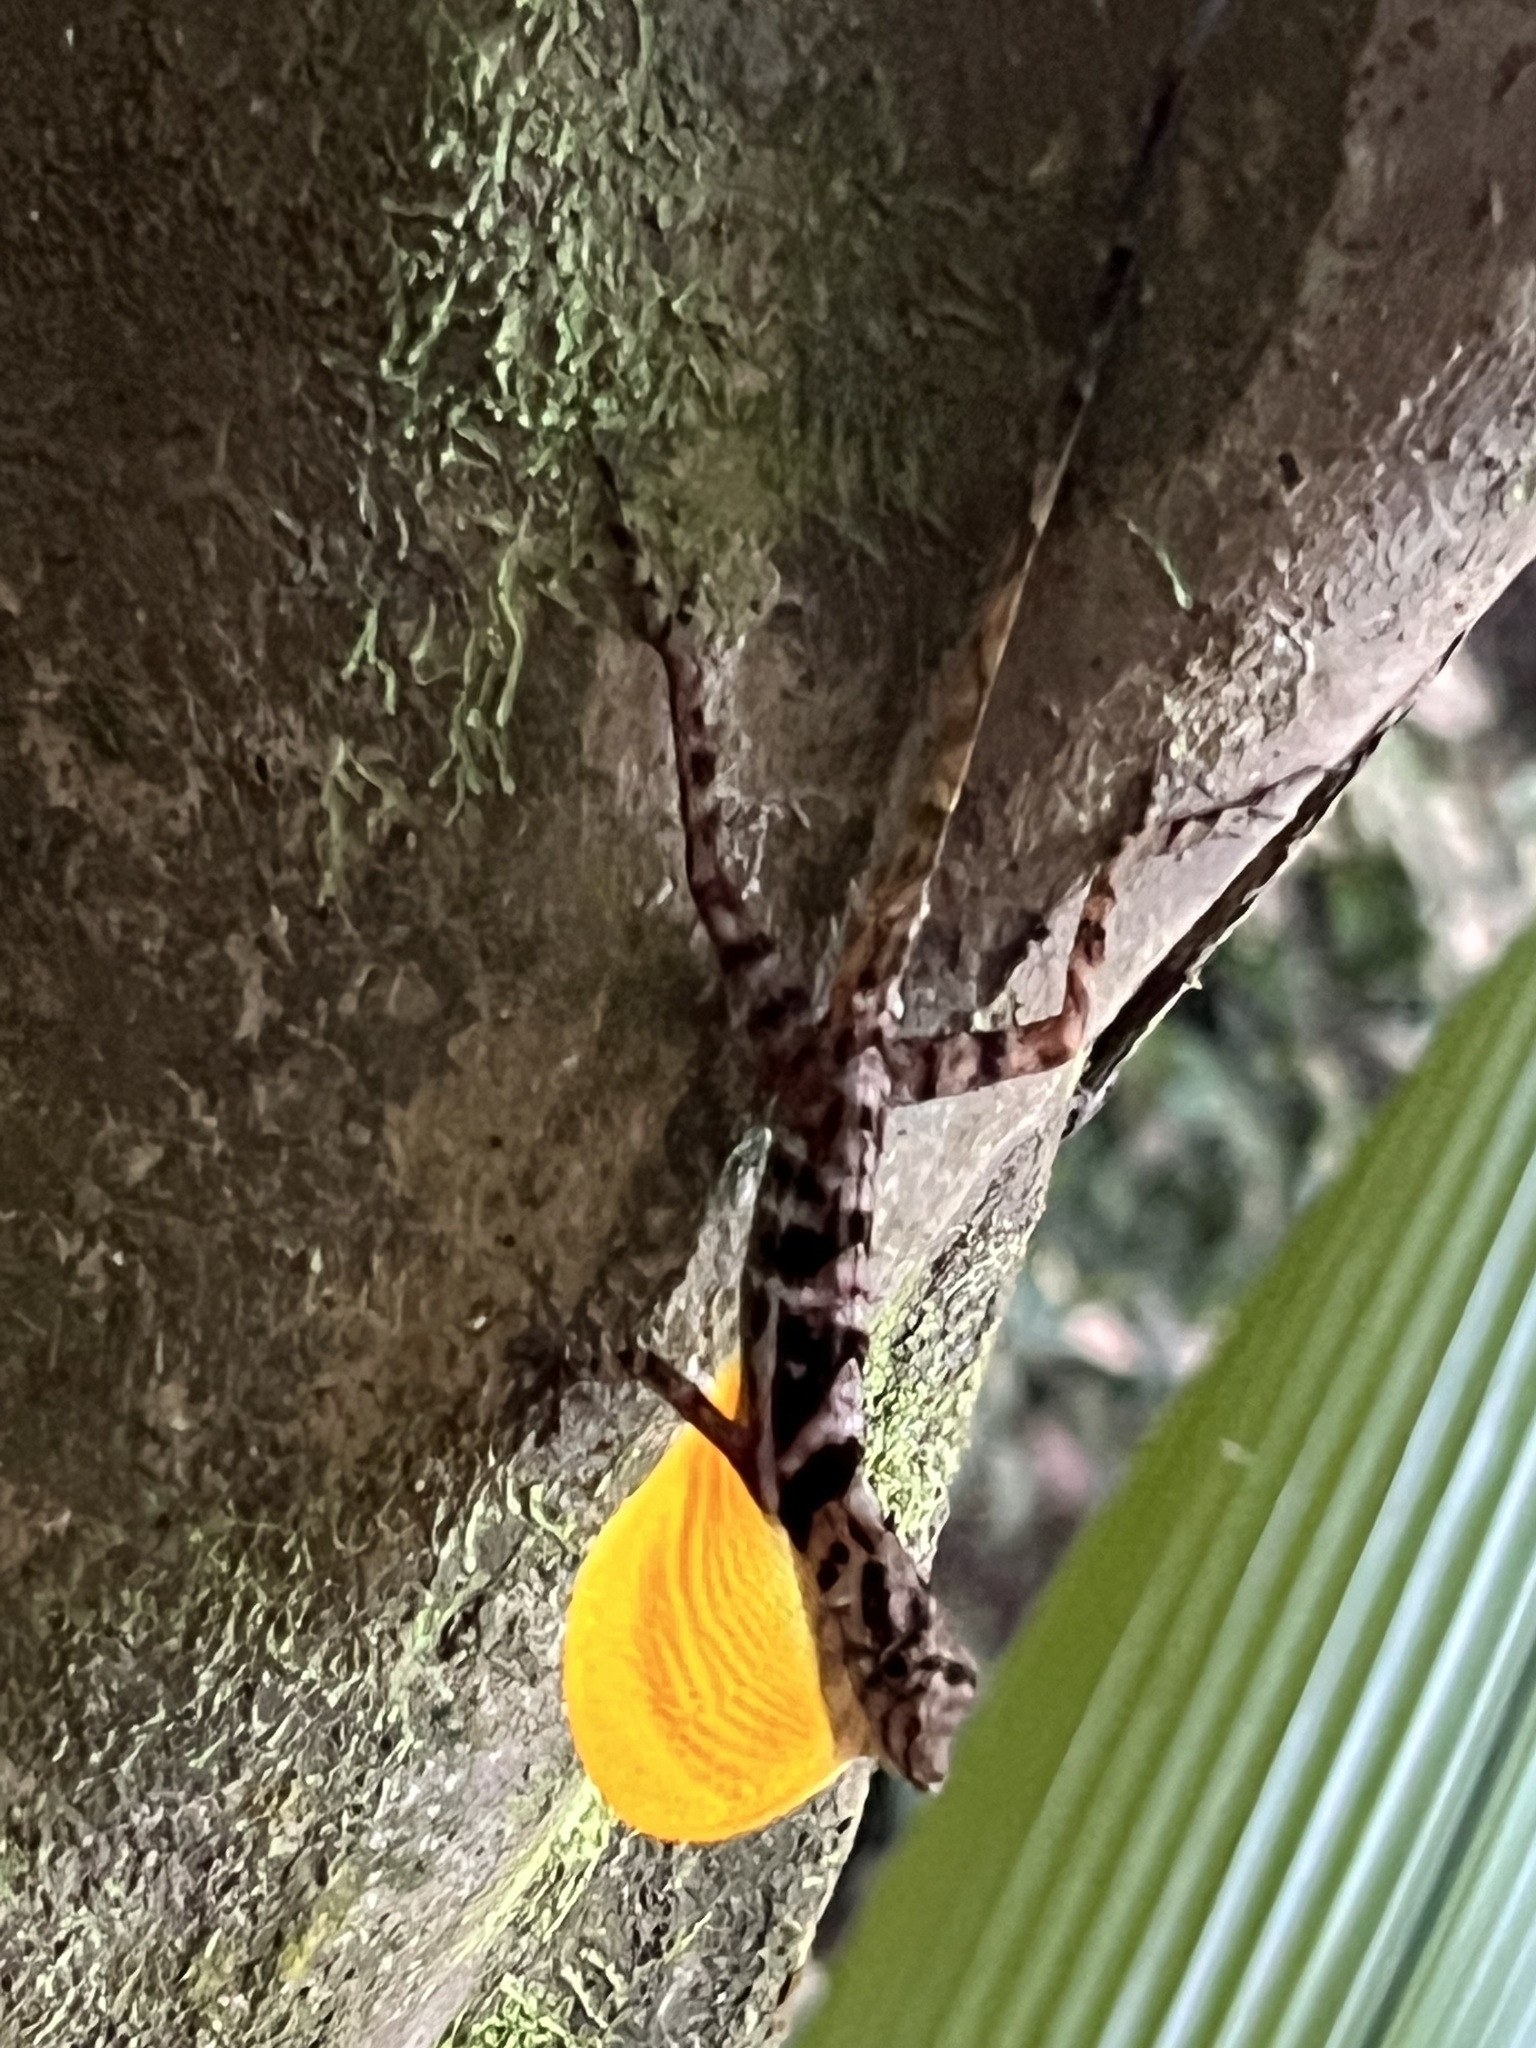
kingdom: Animalia
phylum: Chordata
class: Squamata
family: Dactyloidae
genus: Anolis
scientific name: Anolis osa
